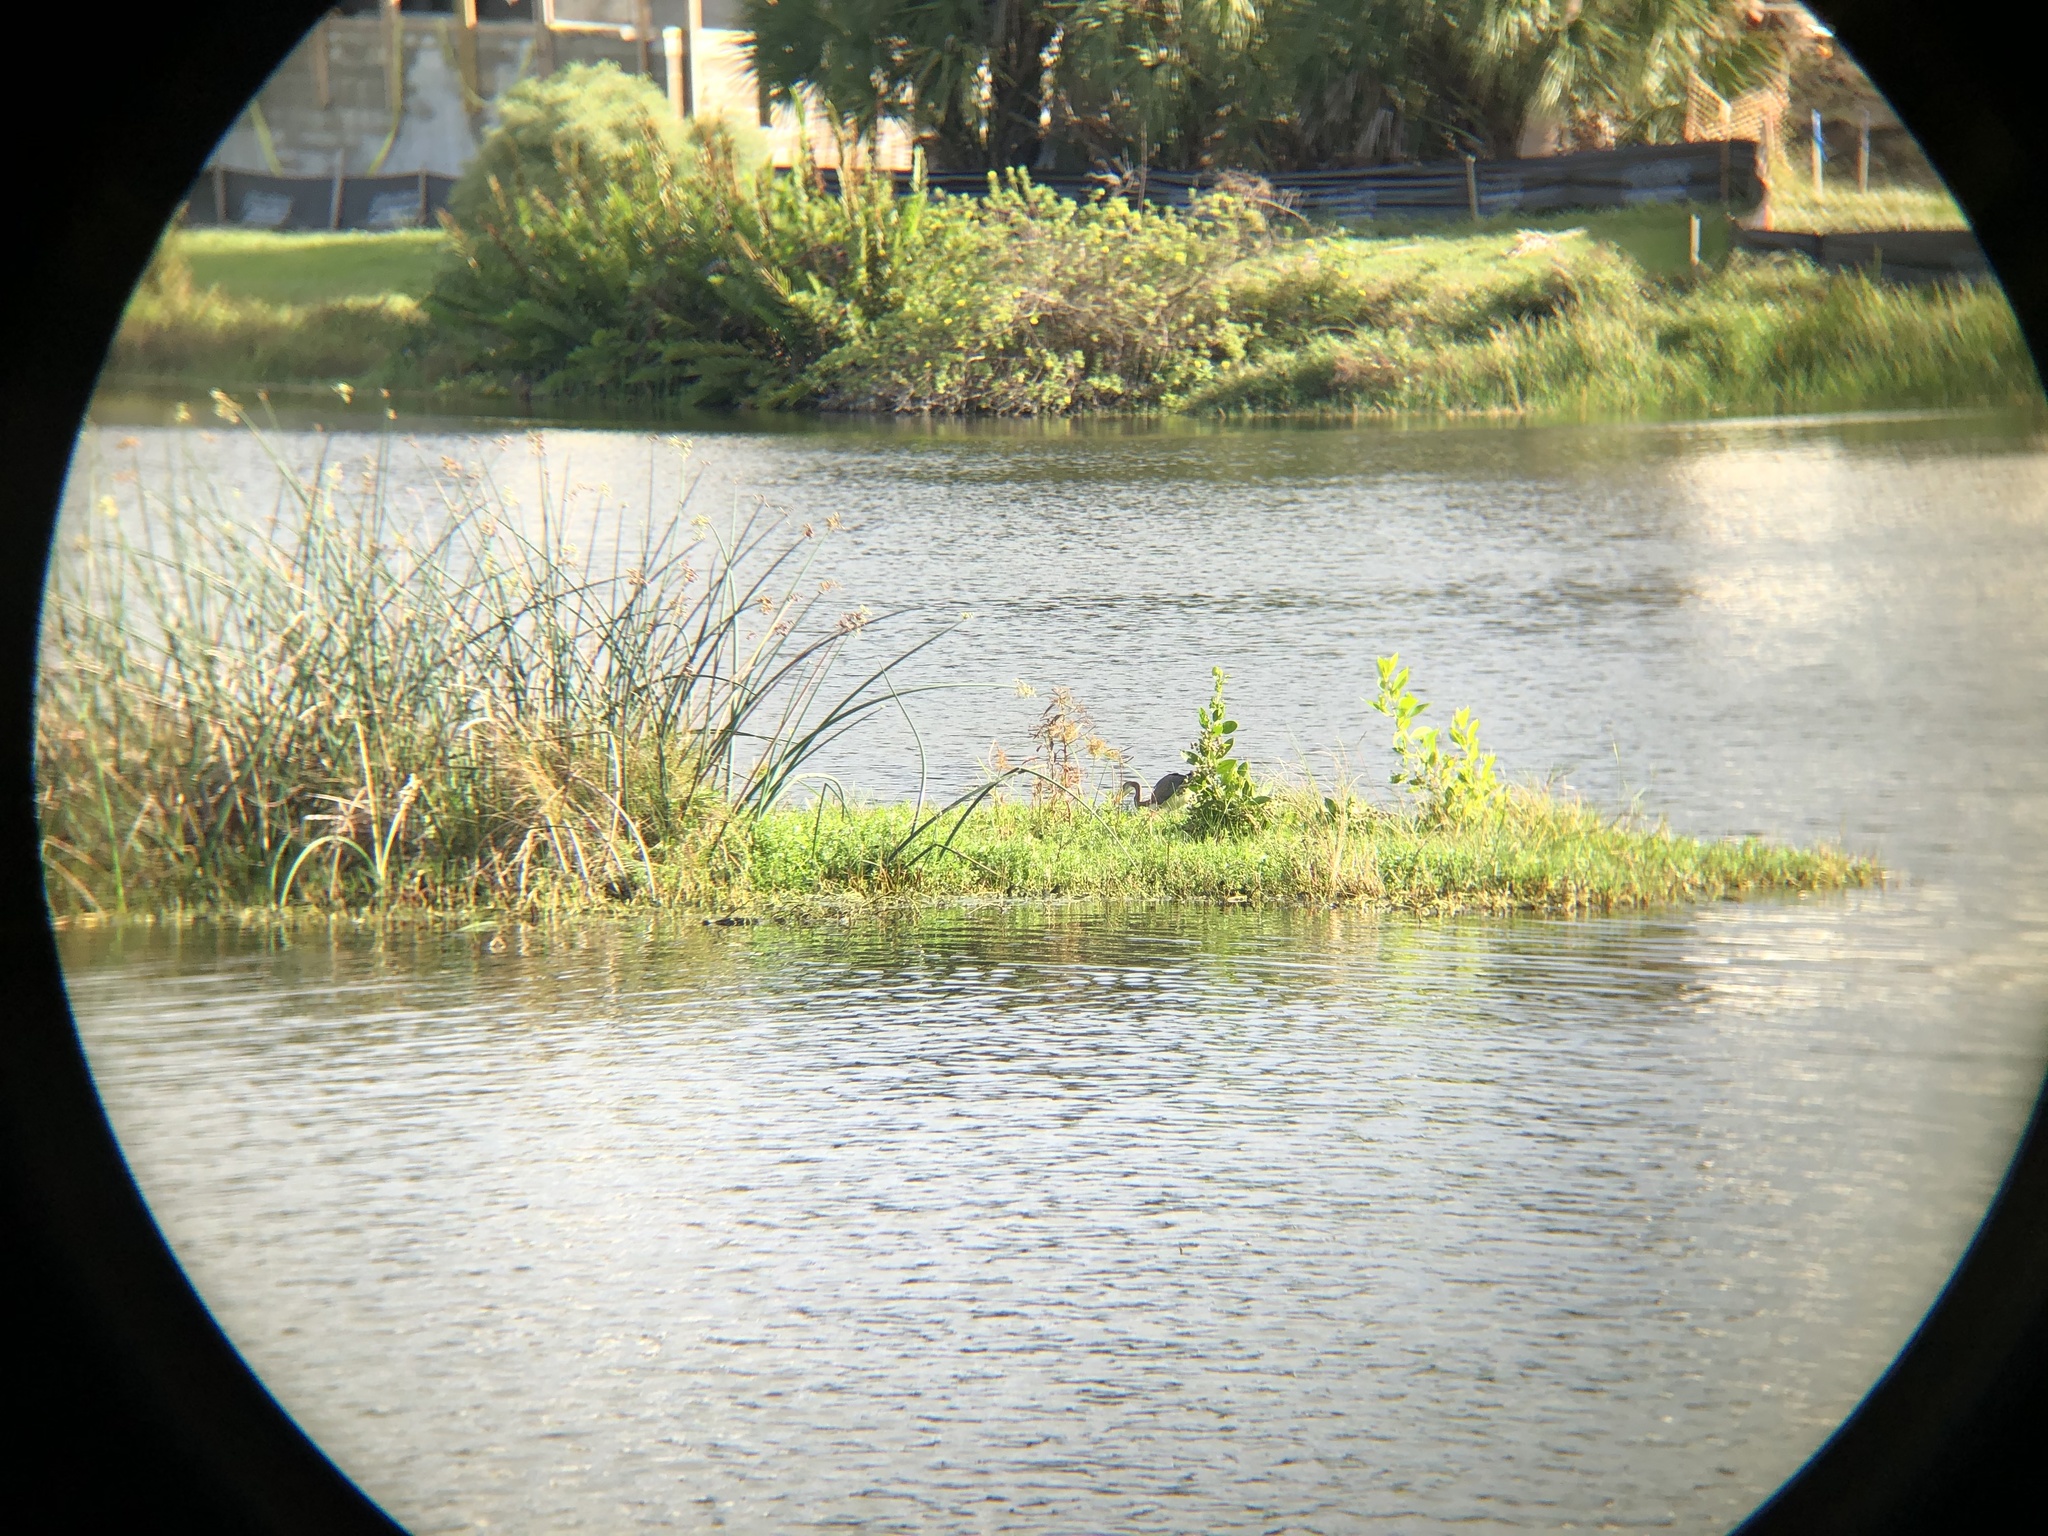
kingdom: Animalia
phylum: Chordata
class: Aves
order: Pelecaniformes
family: Ardeidae
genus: Egretta
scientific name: Egretta tricolor
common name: Tricolored heron
